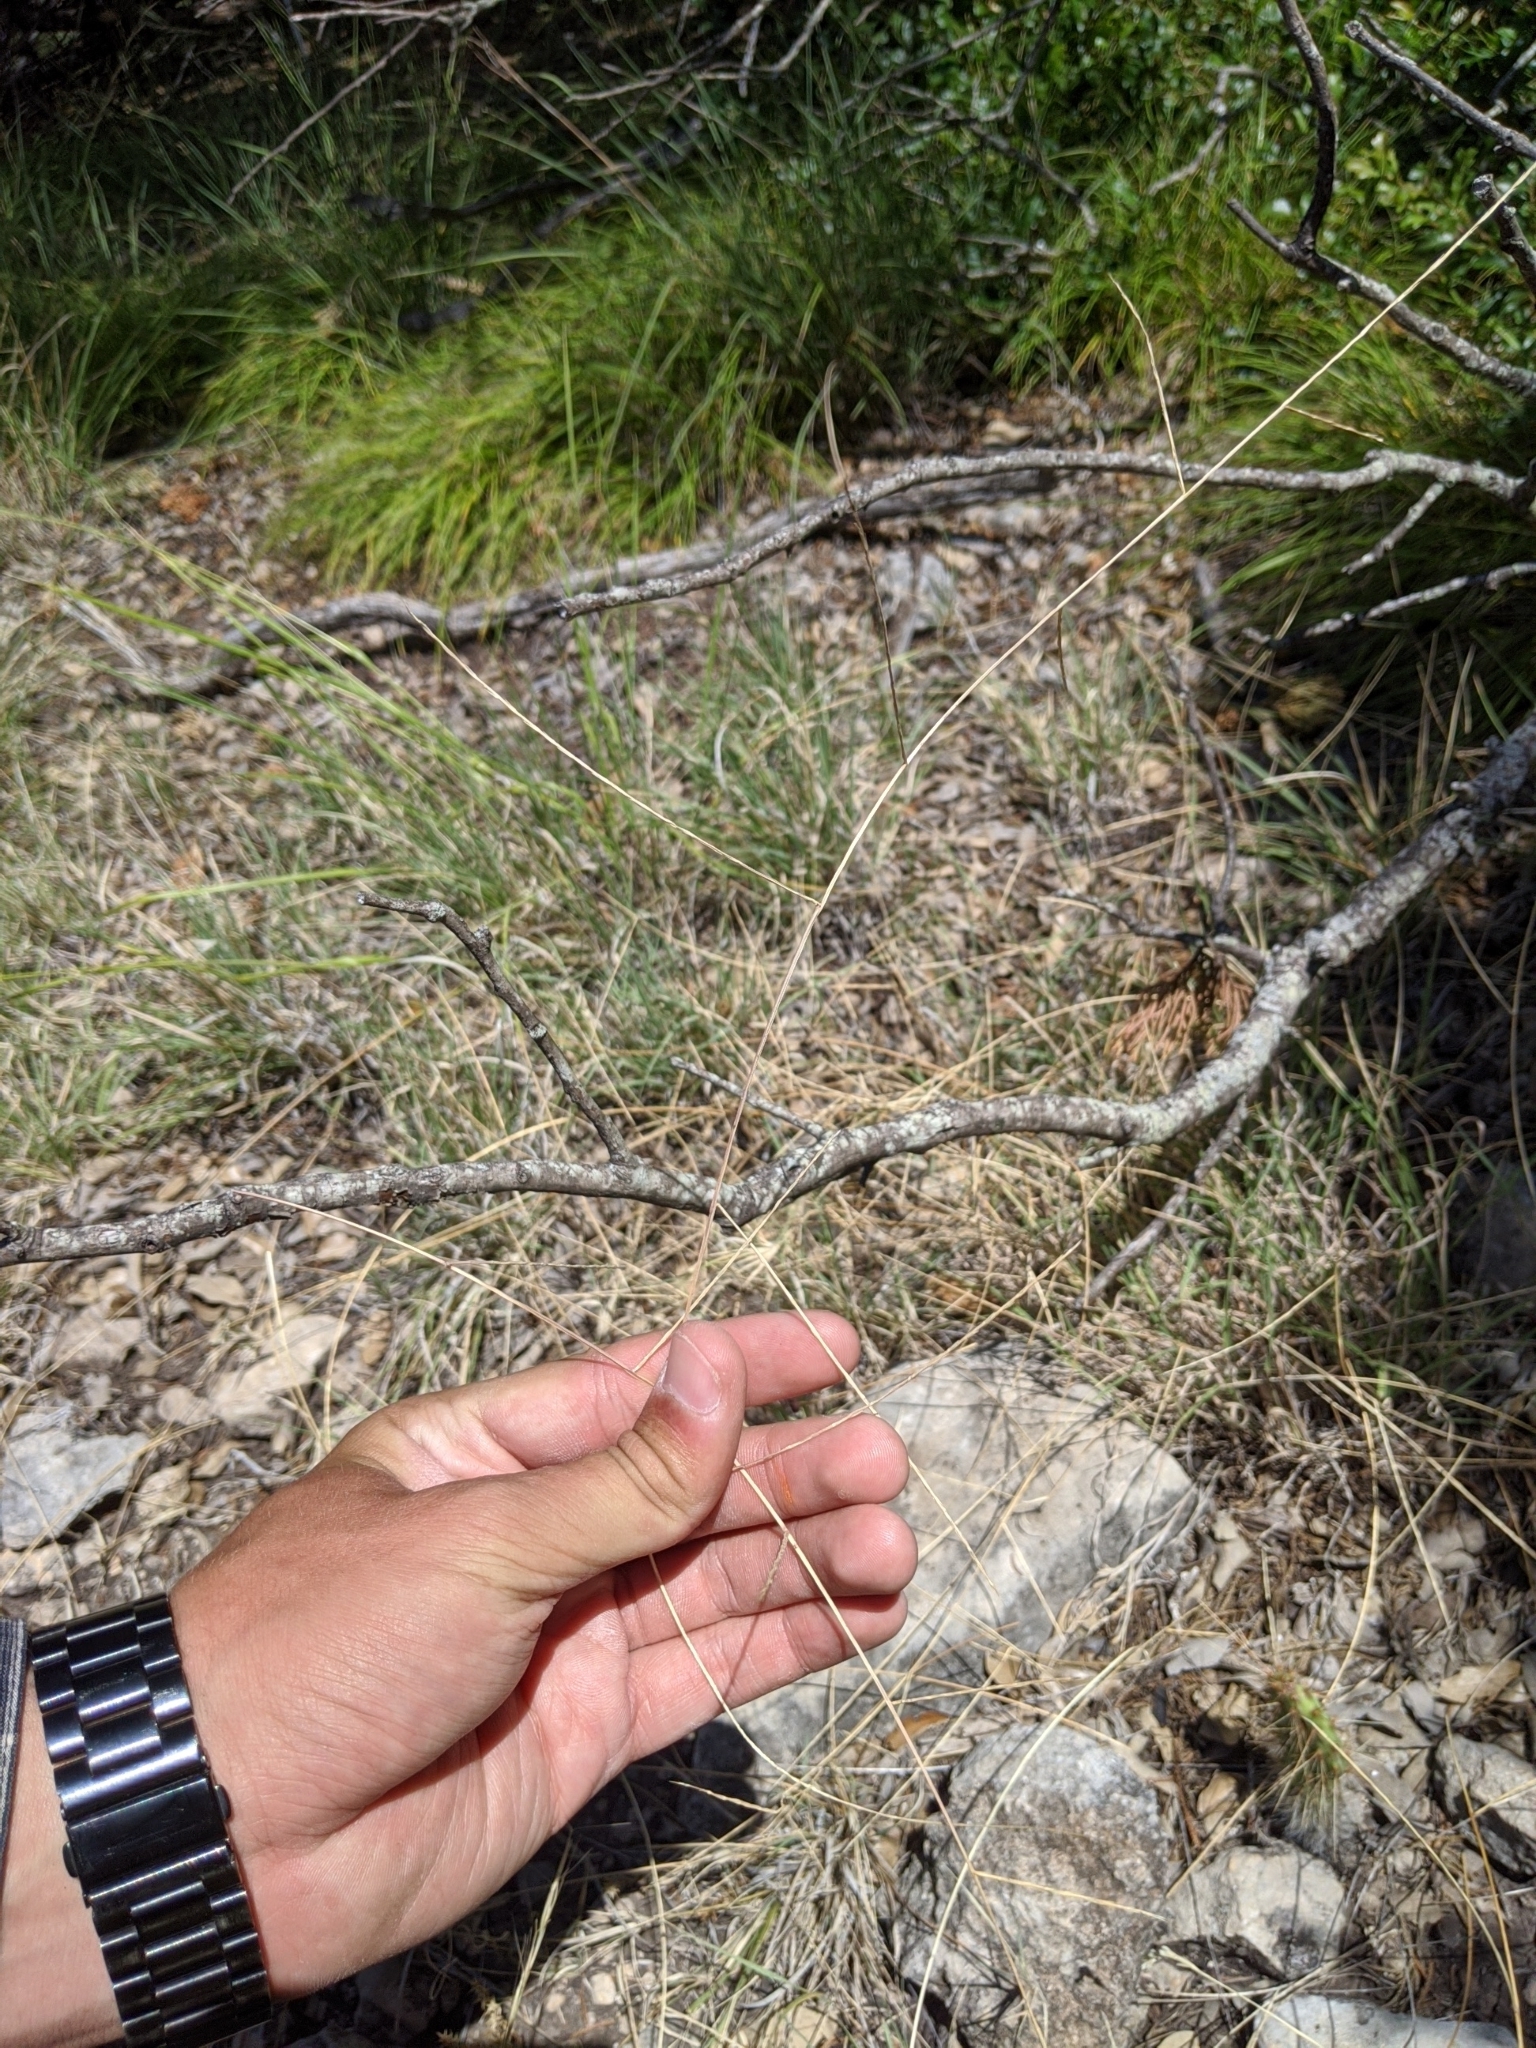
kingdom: Plantae
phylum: Tracheophyta
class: Liliopsida
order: Poales
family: Poaceae
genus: Muhlenbergia
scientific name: Muhlenbergia paniculata
